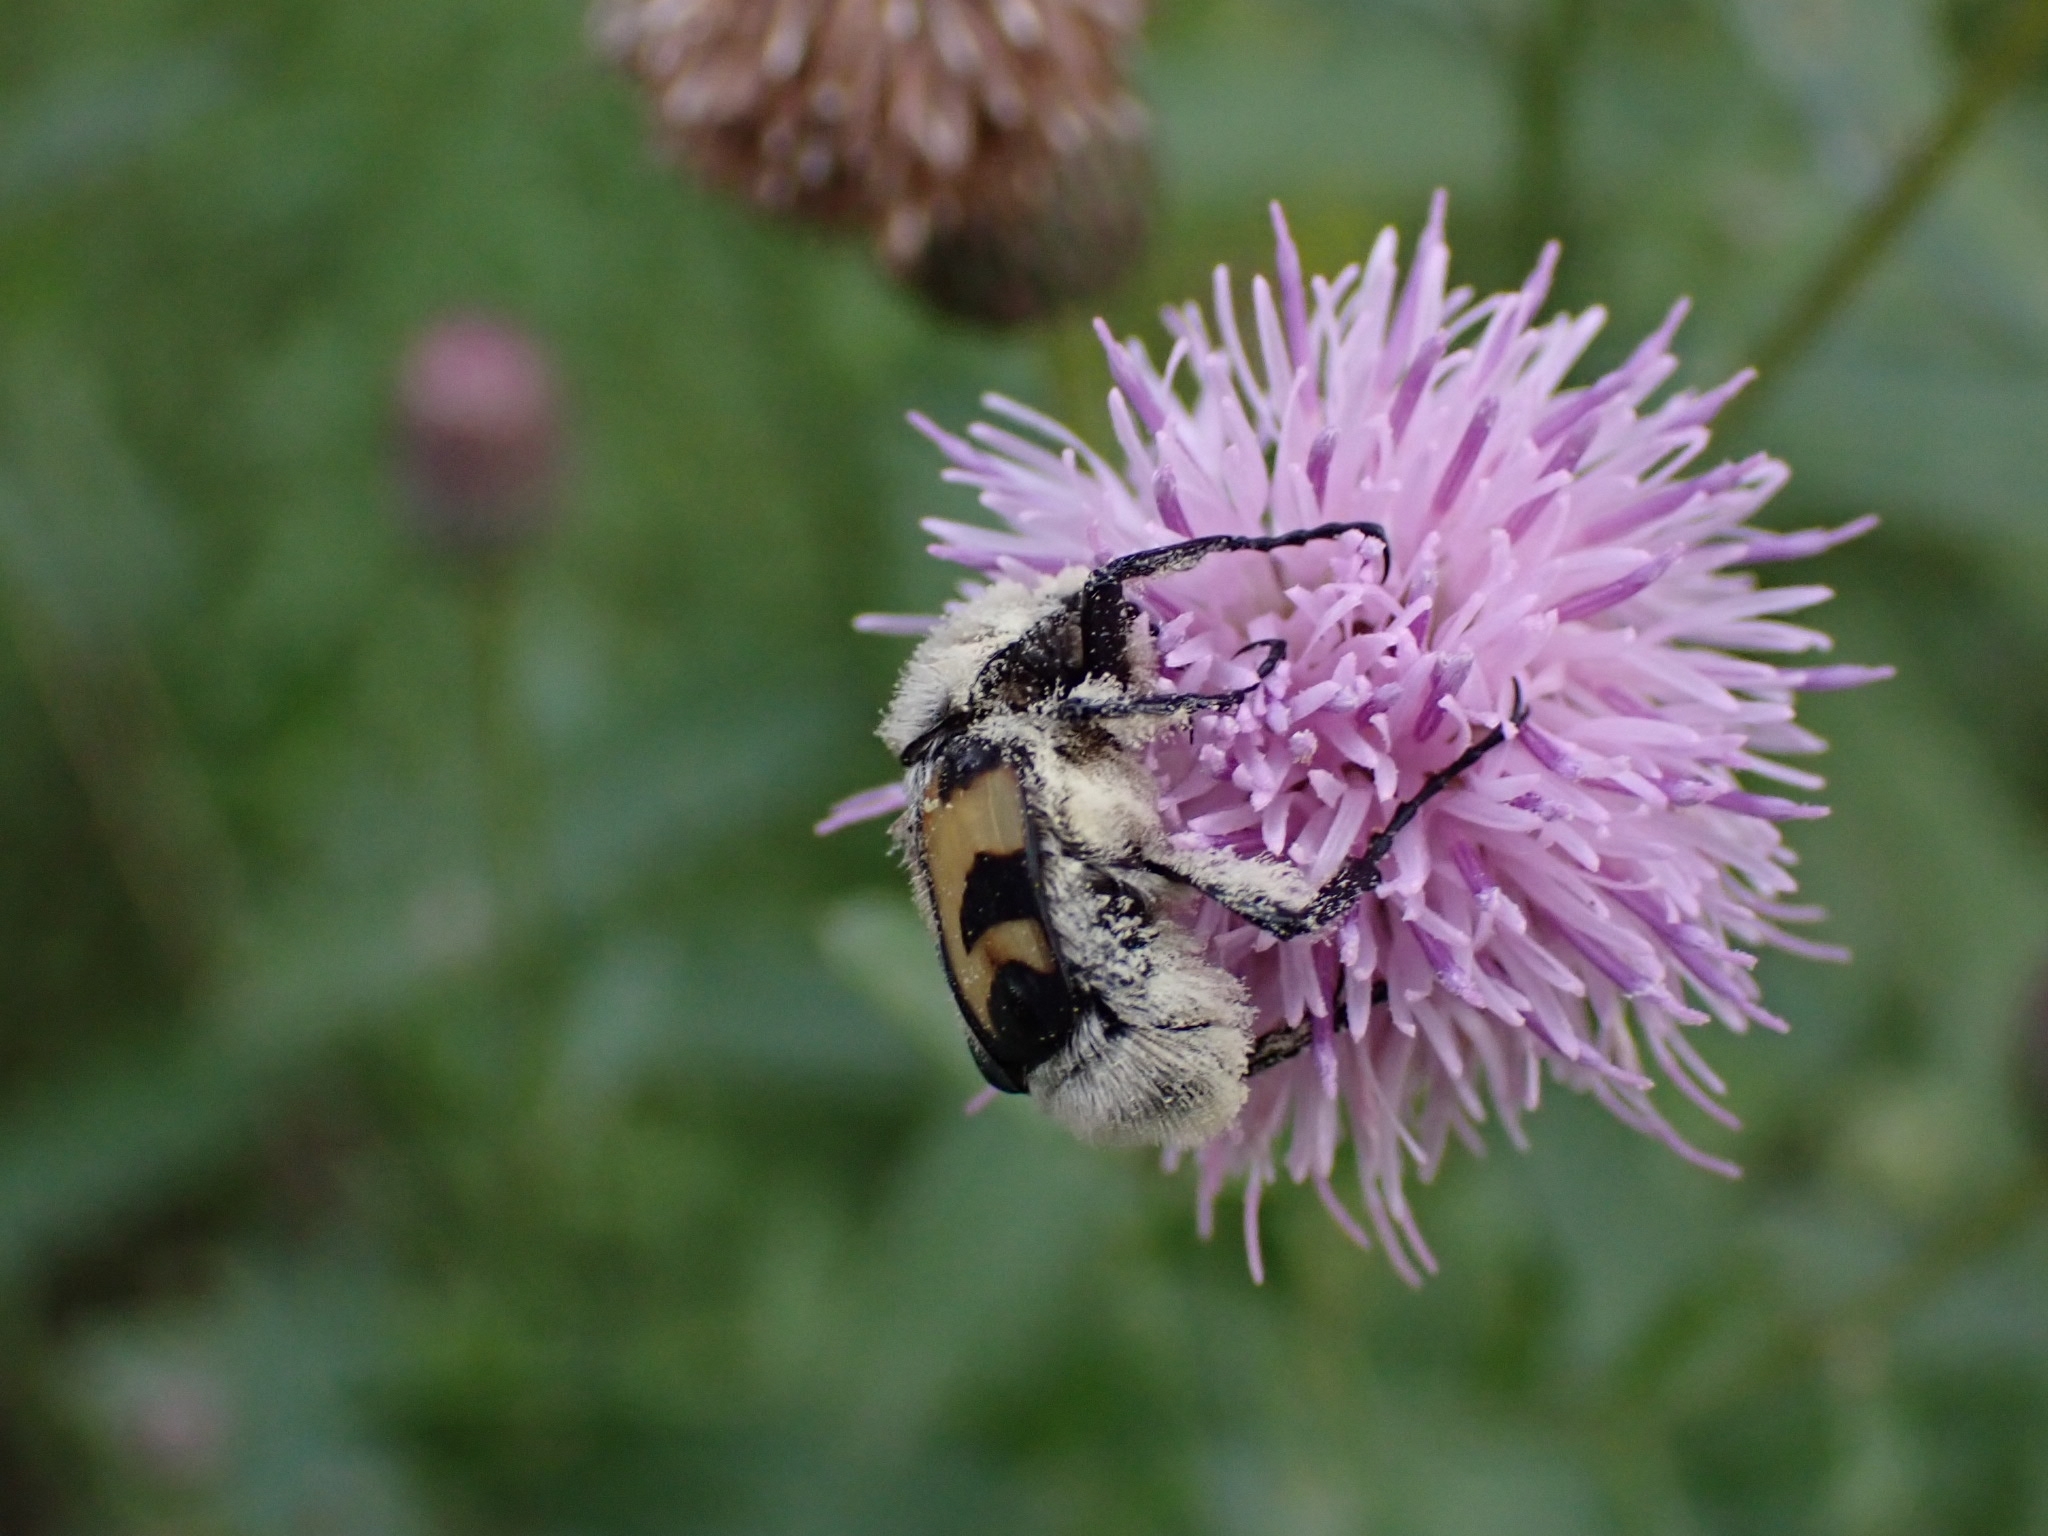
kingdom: Animalia
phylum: Arthropoda
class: Insecta
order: Coleoptera
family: Scarabaeidae
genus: Trichius
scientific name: Trichius fasciatus
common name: Bee beetle
